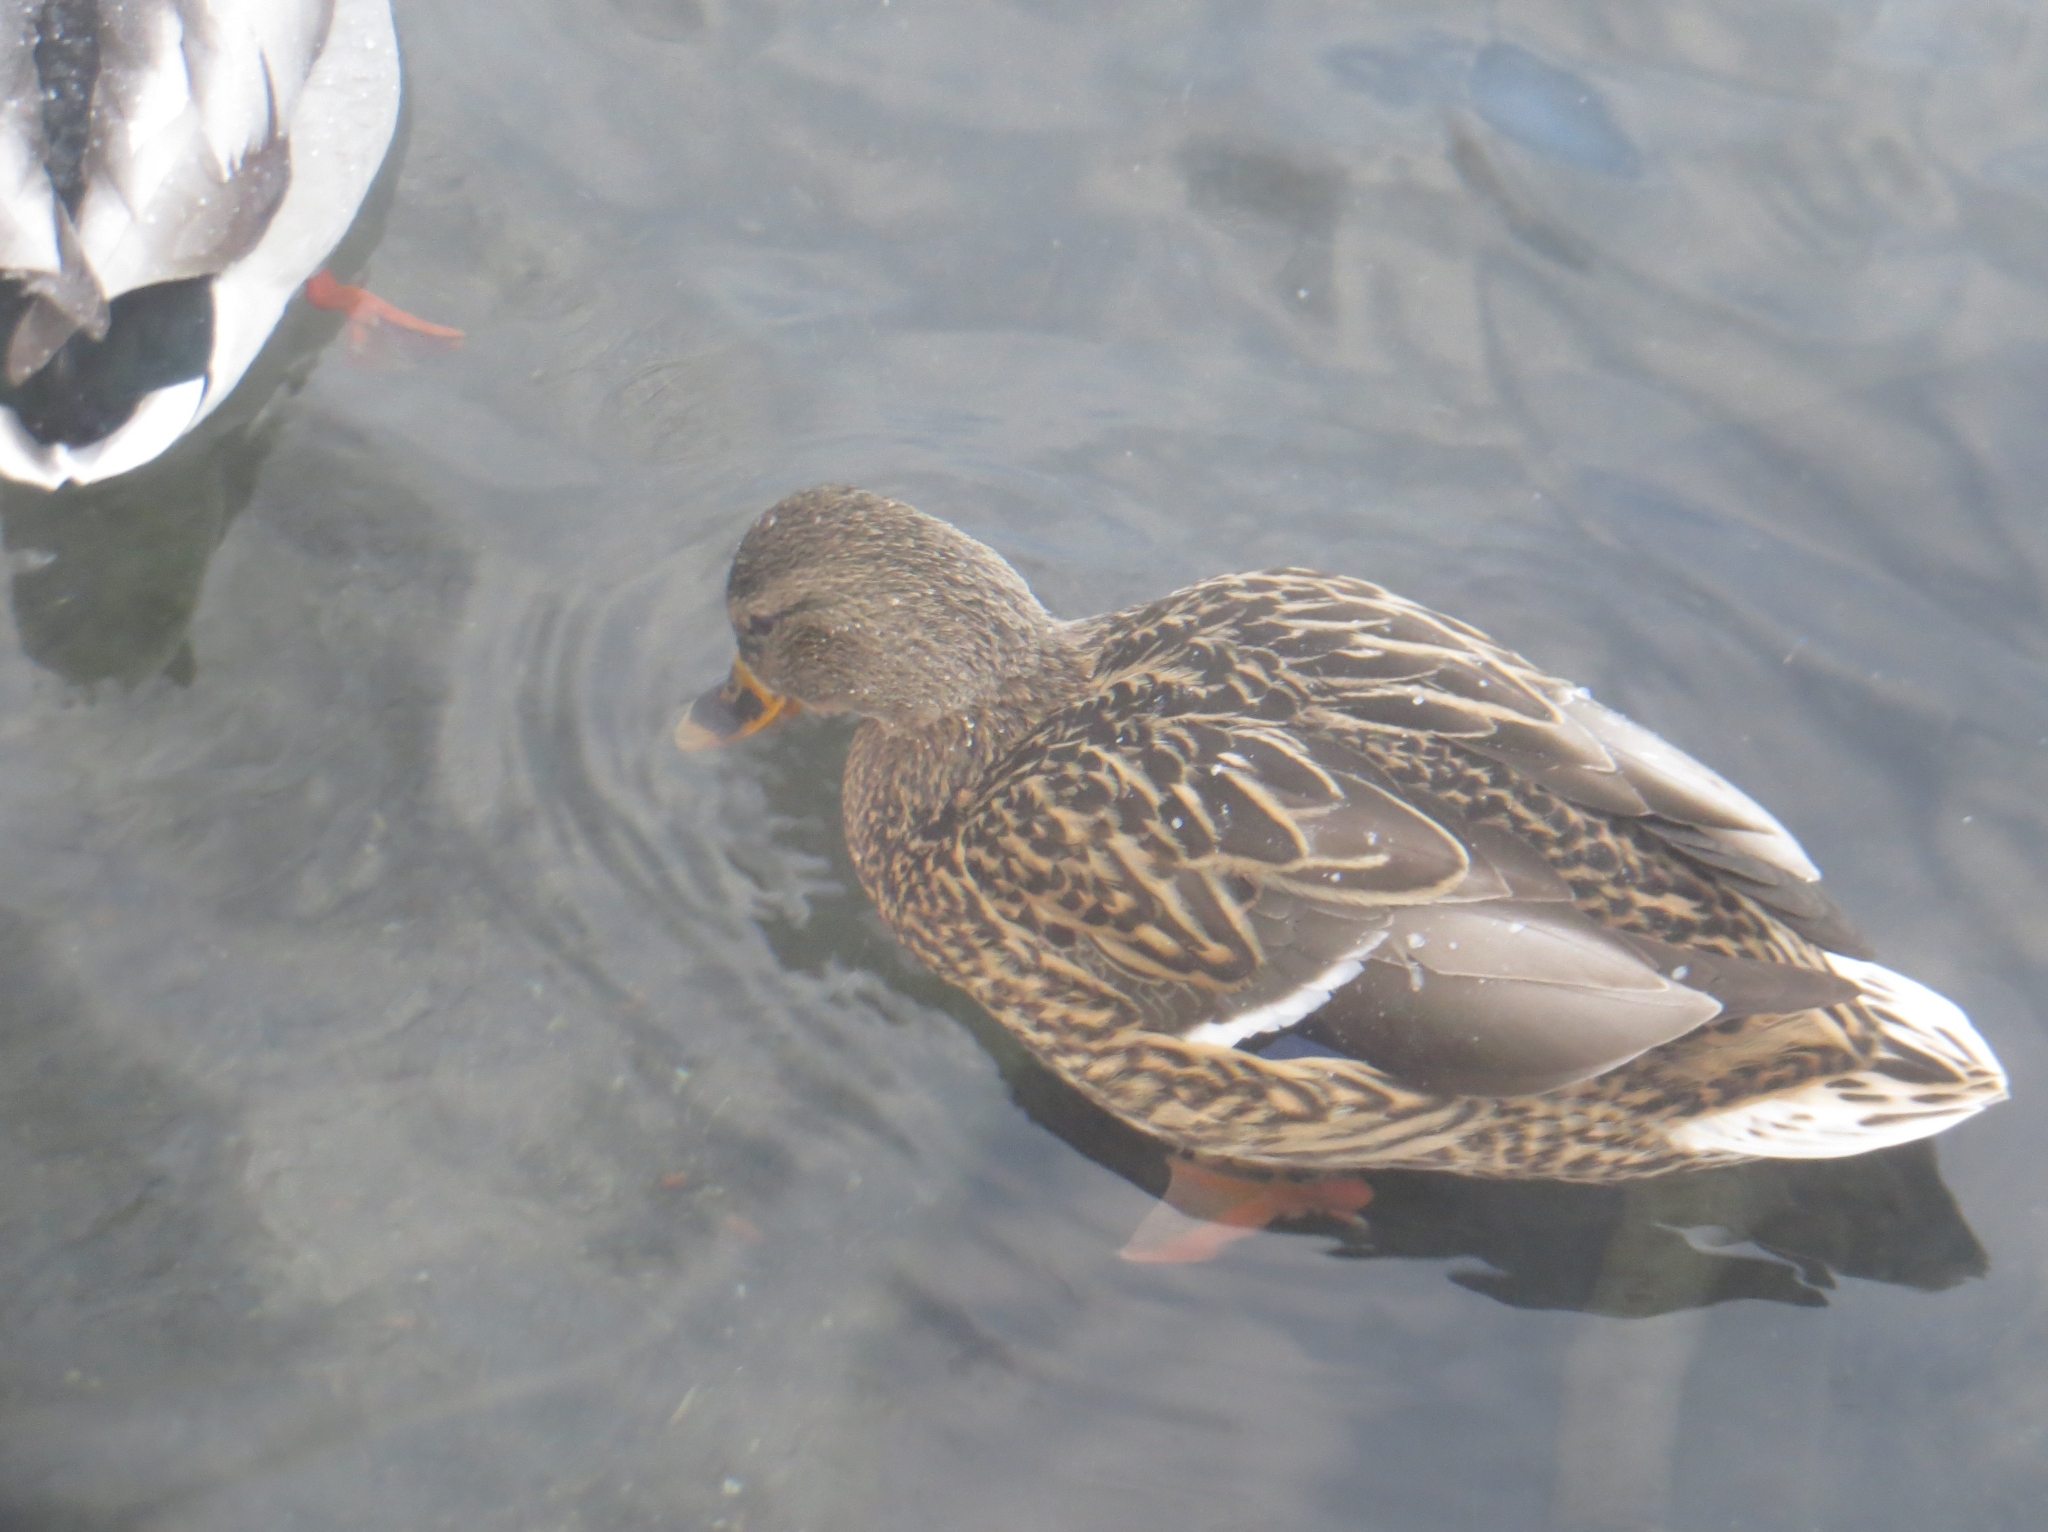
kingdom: Animalia
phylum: Chordata
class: Aves
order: Anseriformes
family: Anatidae
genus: Anas
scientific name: Anas platyrhynchos
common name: Mallard
